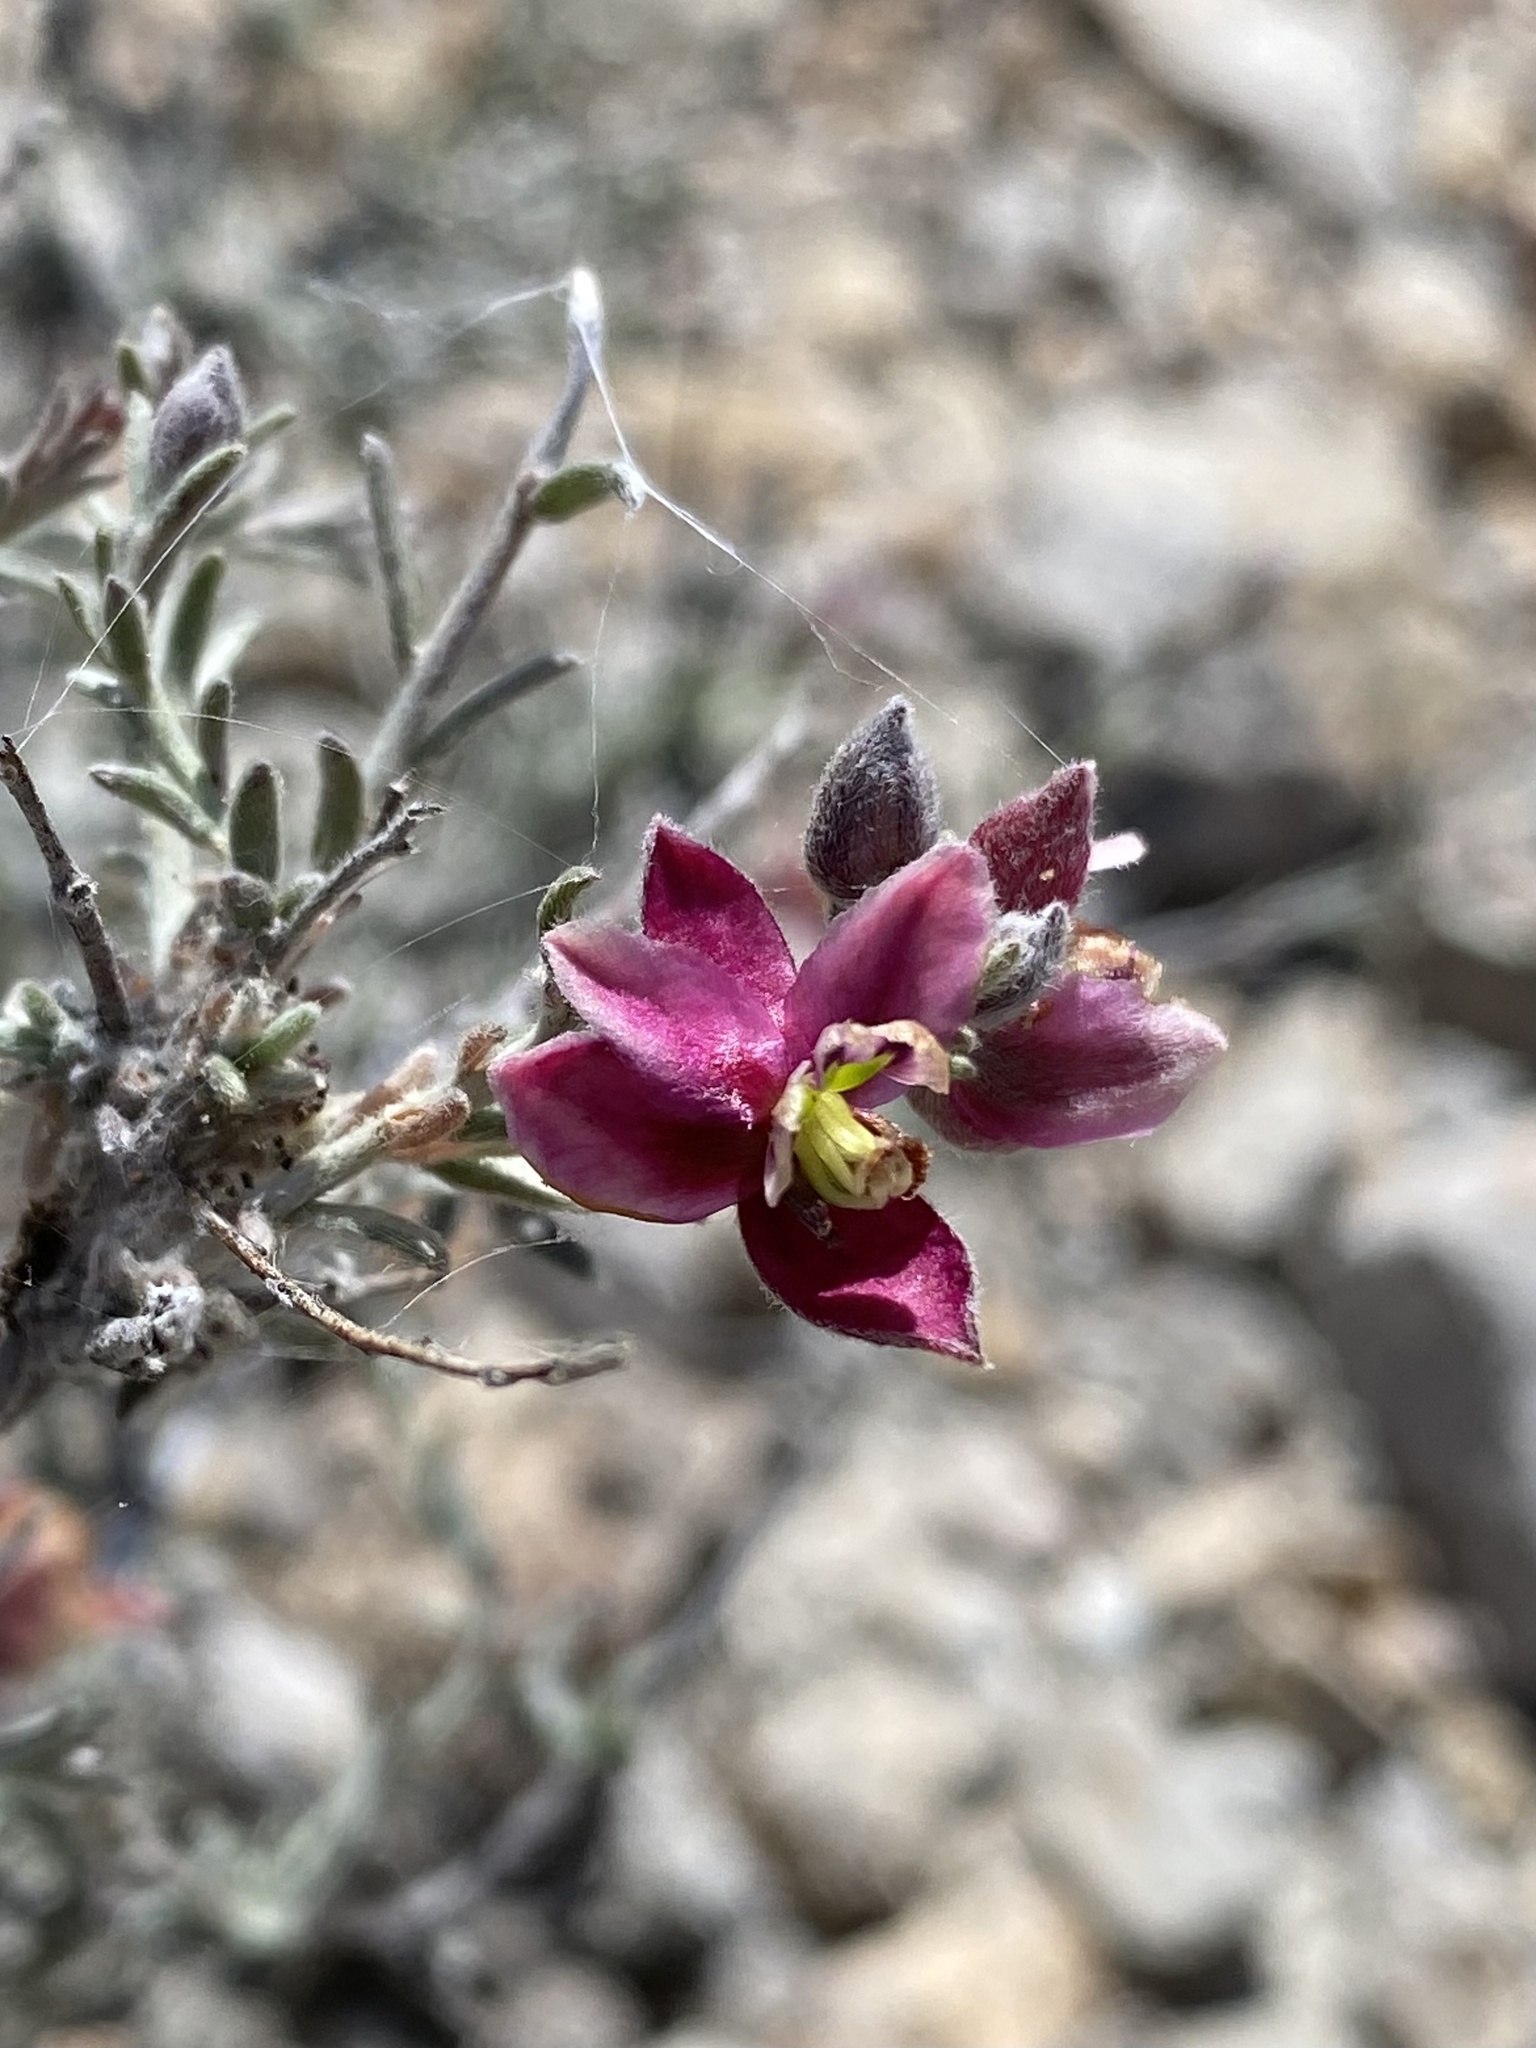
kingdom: Plantae
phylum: Tracheophyta
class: Magnoliopsida
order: Zygophyllales
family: Krameriaceae
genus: Krameria
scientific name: Krameria erecta
